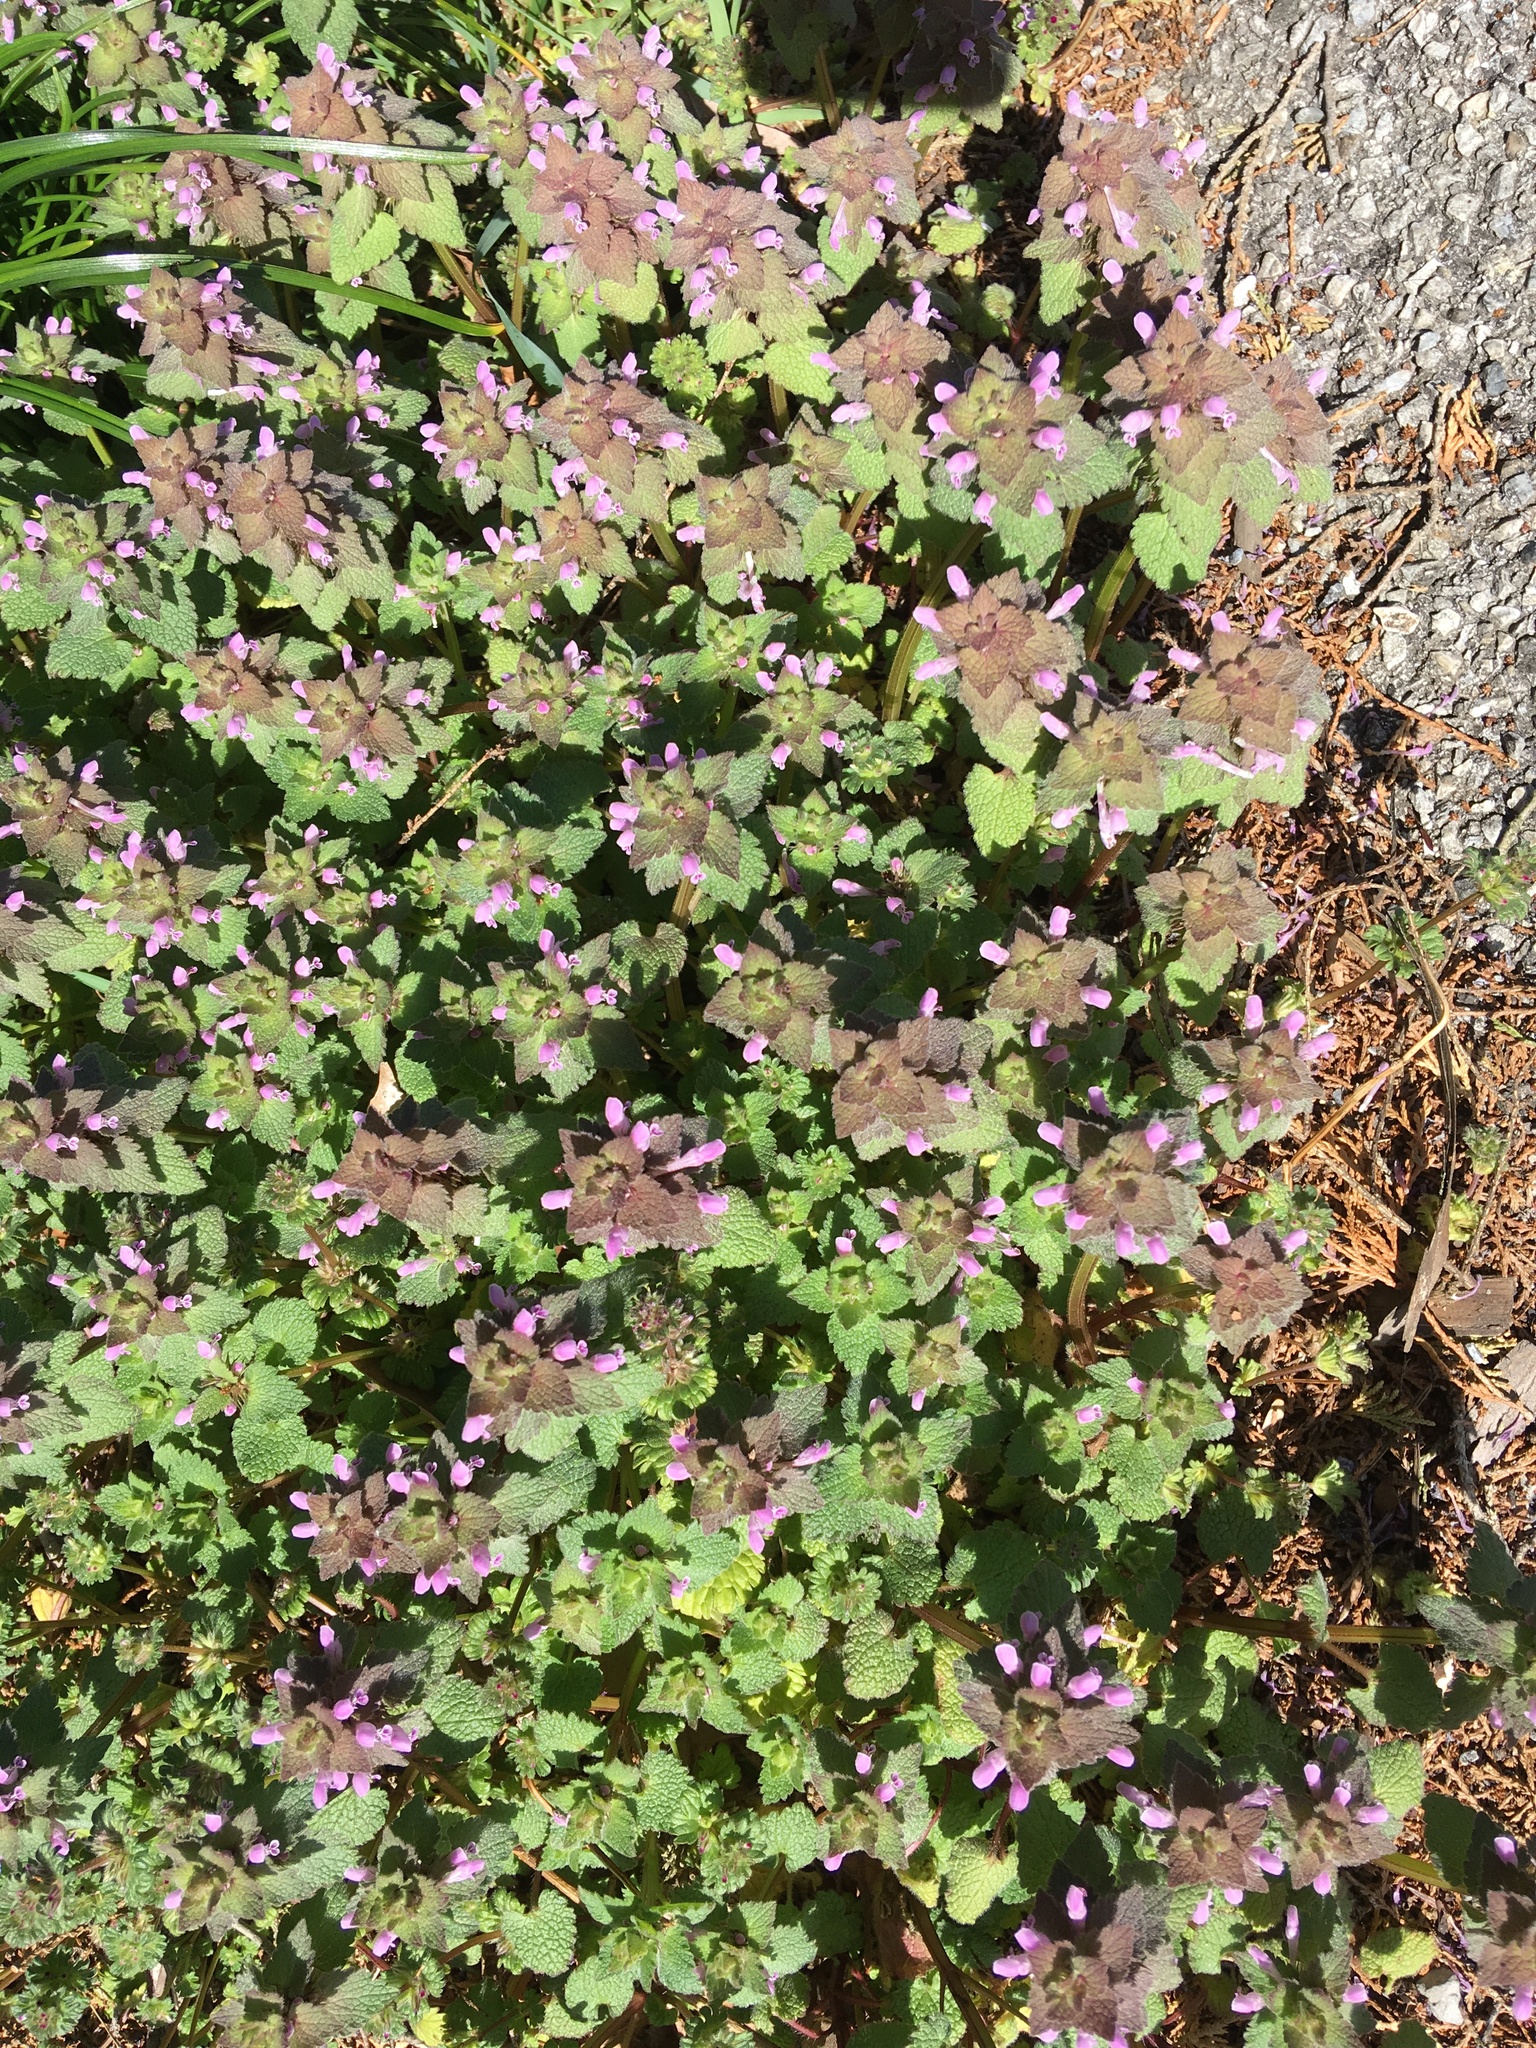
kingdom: Plantae
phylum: Tracheophyta
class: Magnoliopsida
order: Lamiales
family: Lamiaceae
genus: Lamium
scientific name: Lamium purpureum
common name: Red dead-nettle
